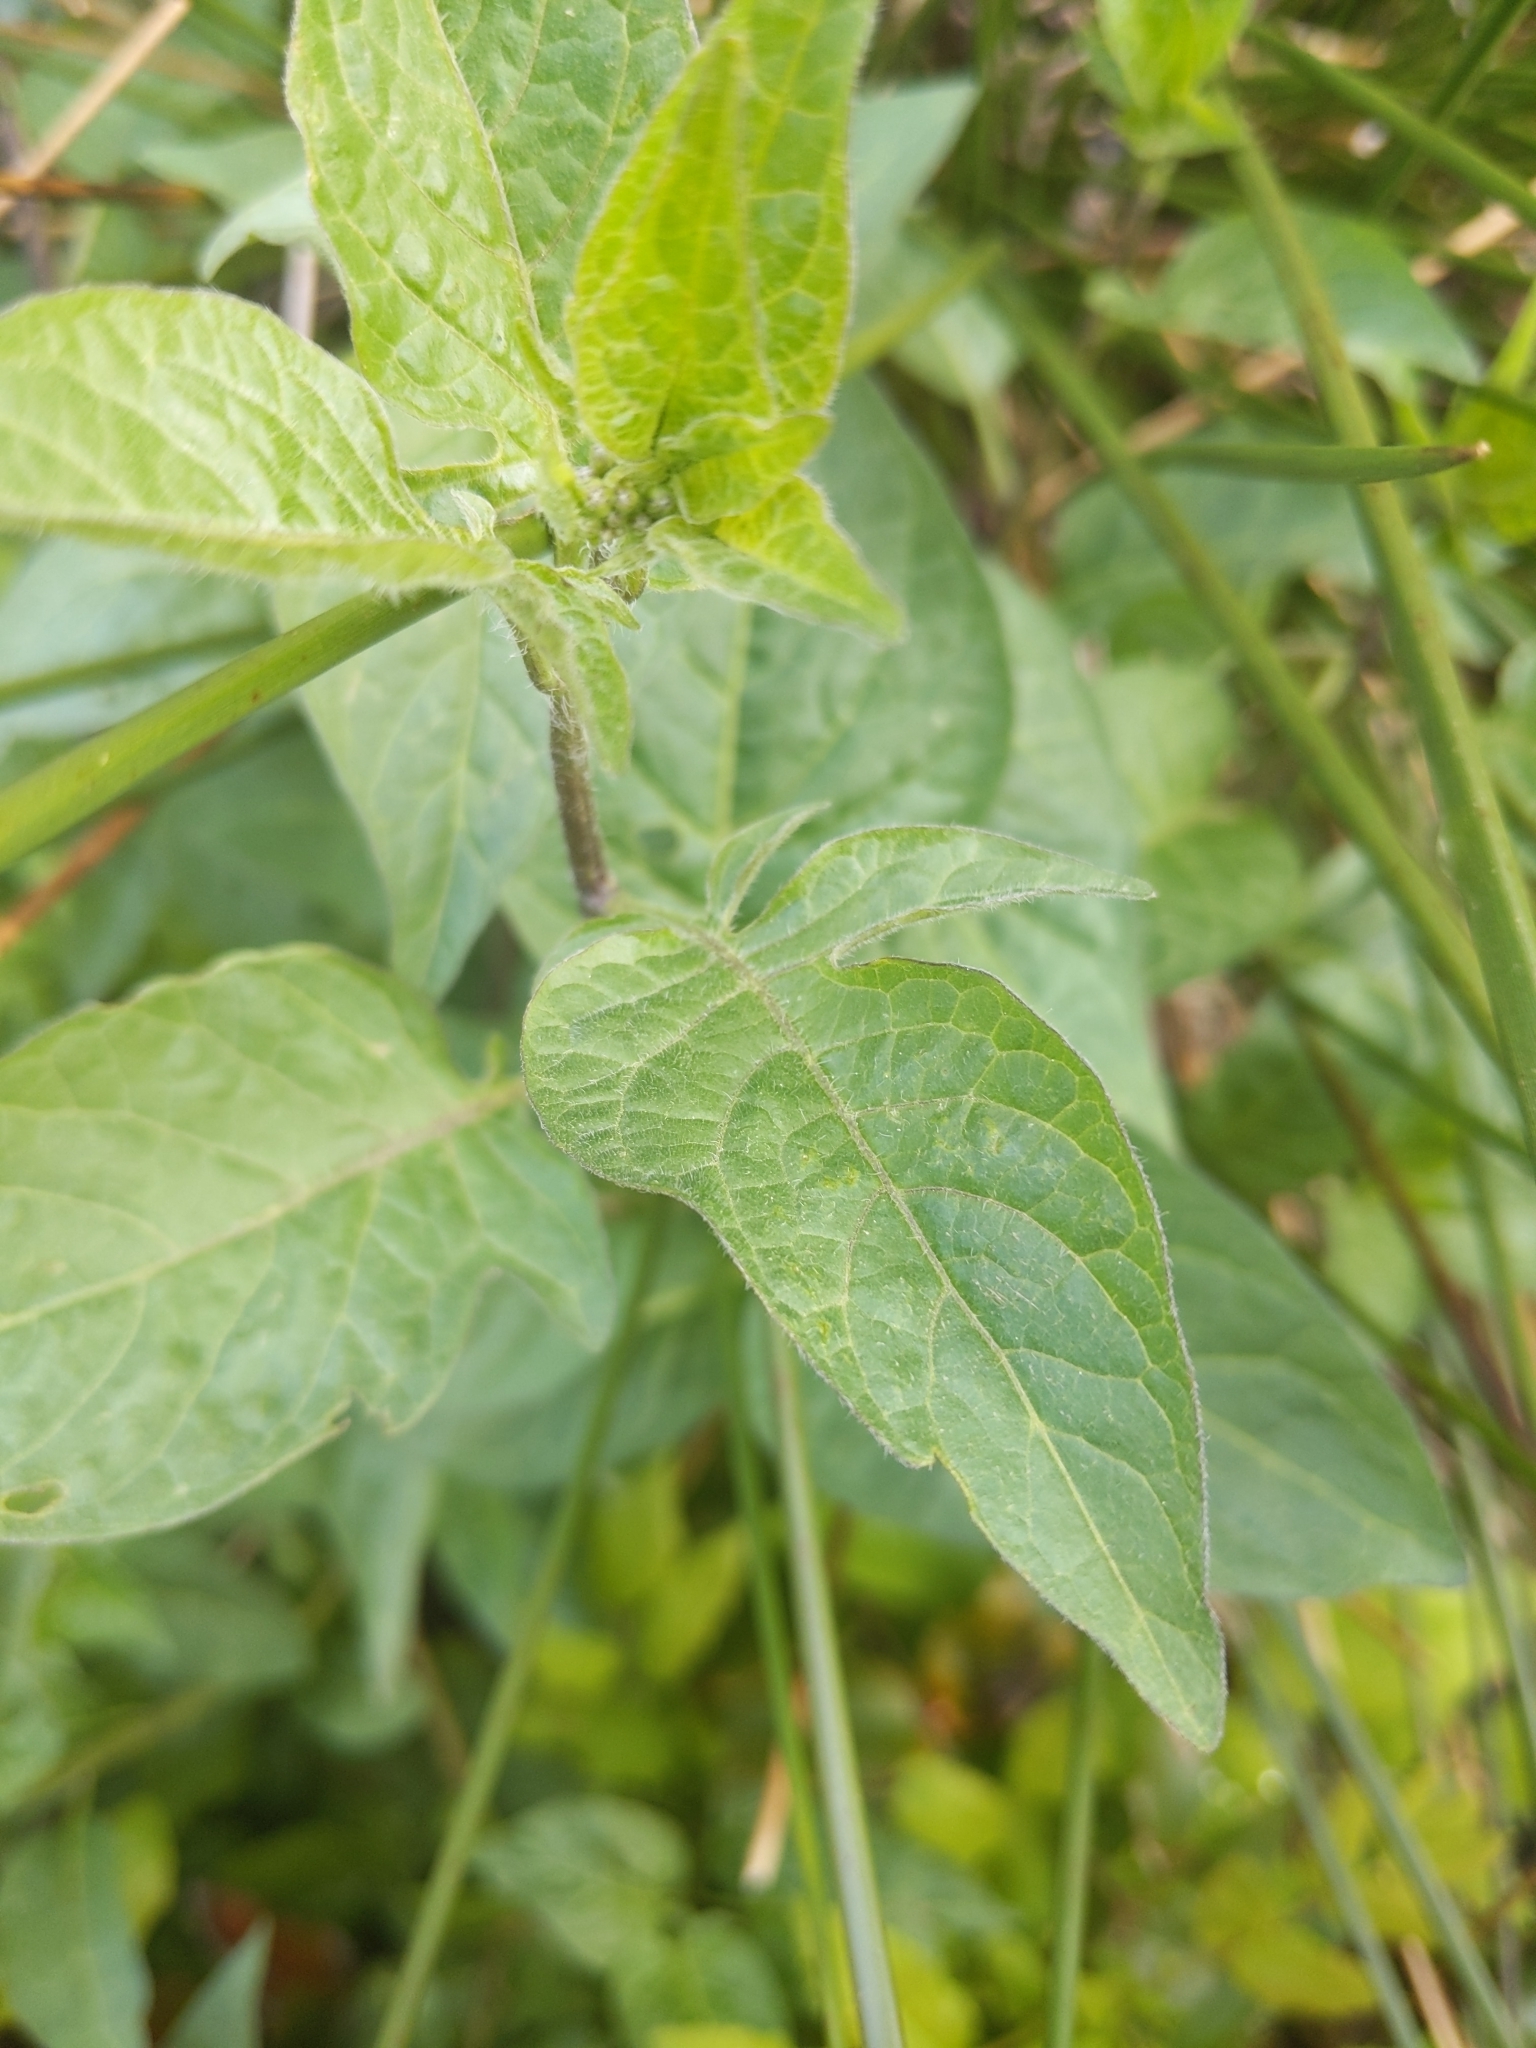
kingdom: Plantae
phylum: Tracheophyta
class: Magnoliopsida
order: Solanales
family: Solanaceae
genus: Solanum
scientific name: Solanum dulcamara
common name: Climbing nightshade
